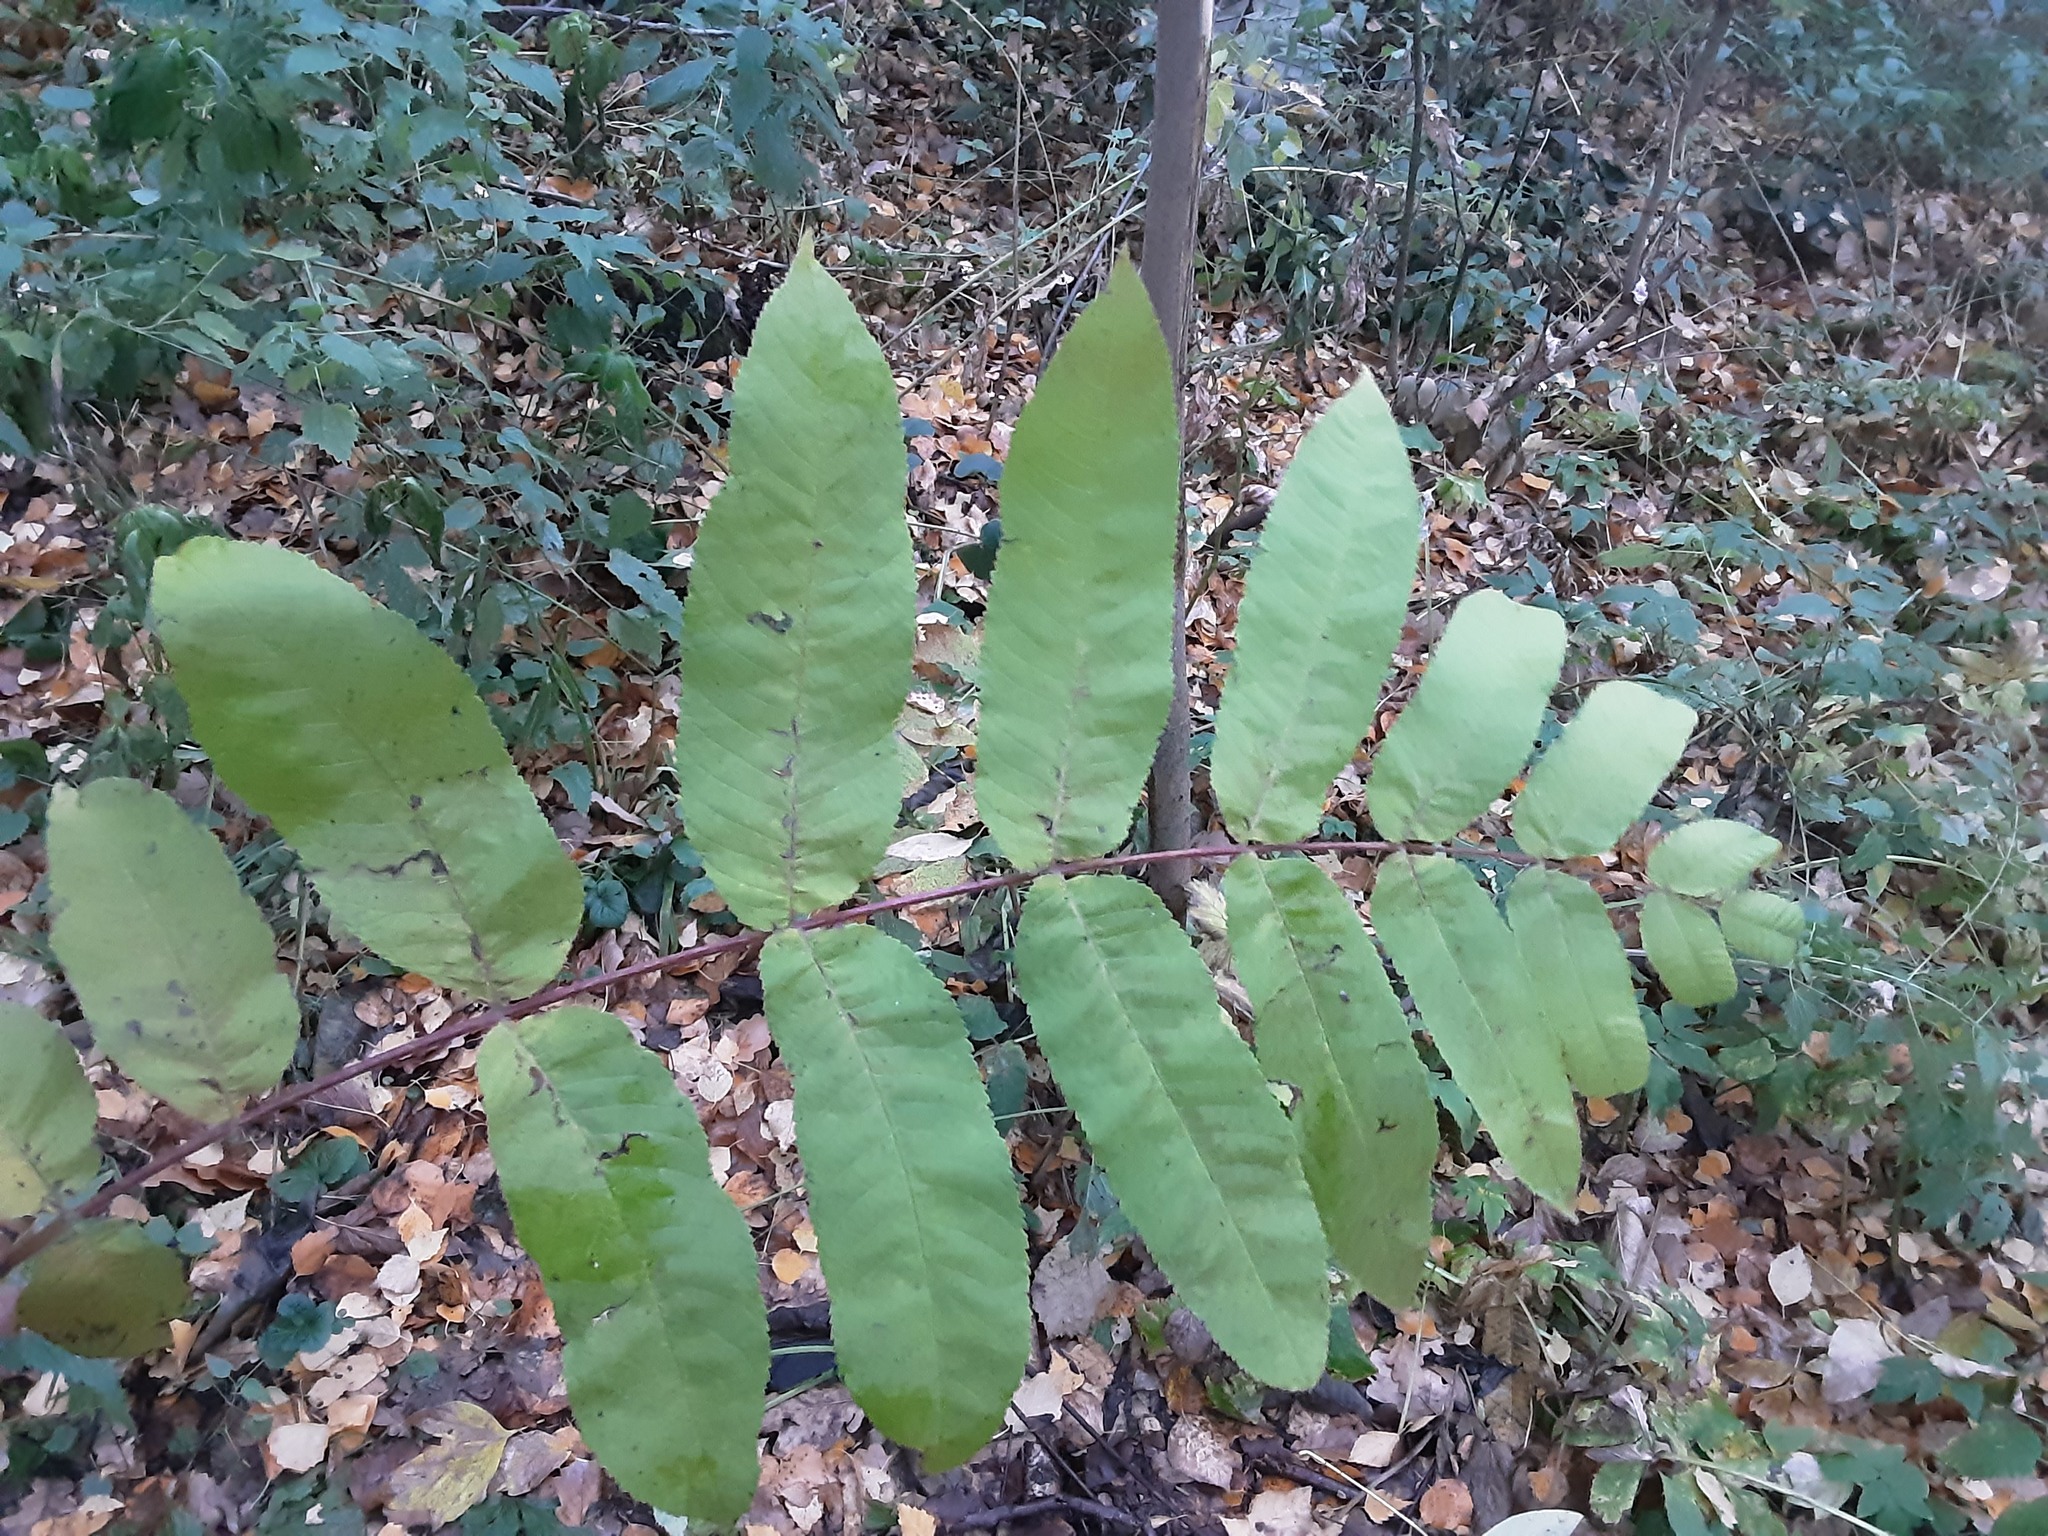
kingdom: Plantae
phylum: Tracheophyta
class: Magnoliopsida
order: Fagales
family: Juglandaceae
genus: Juglans
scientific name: Juglans mandshurica
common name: Manchurian walnut
